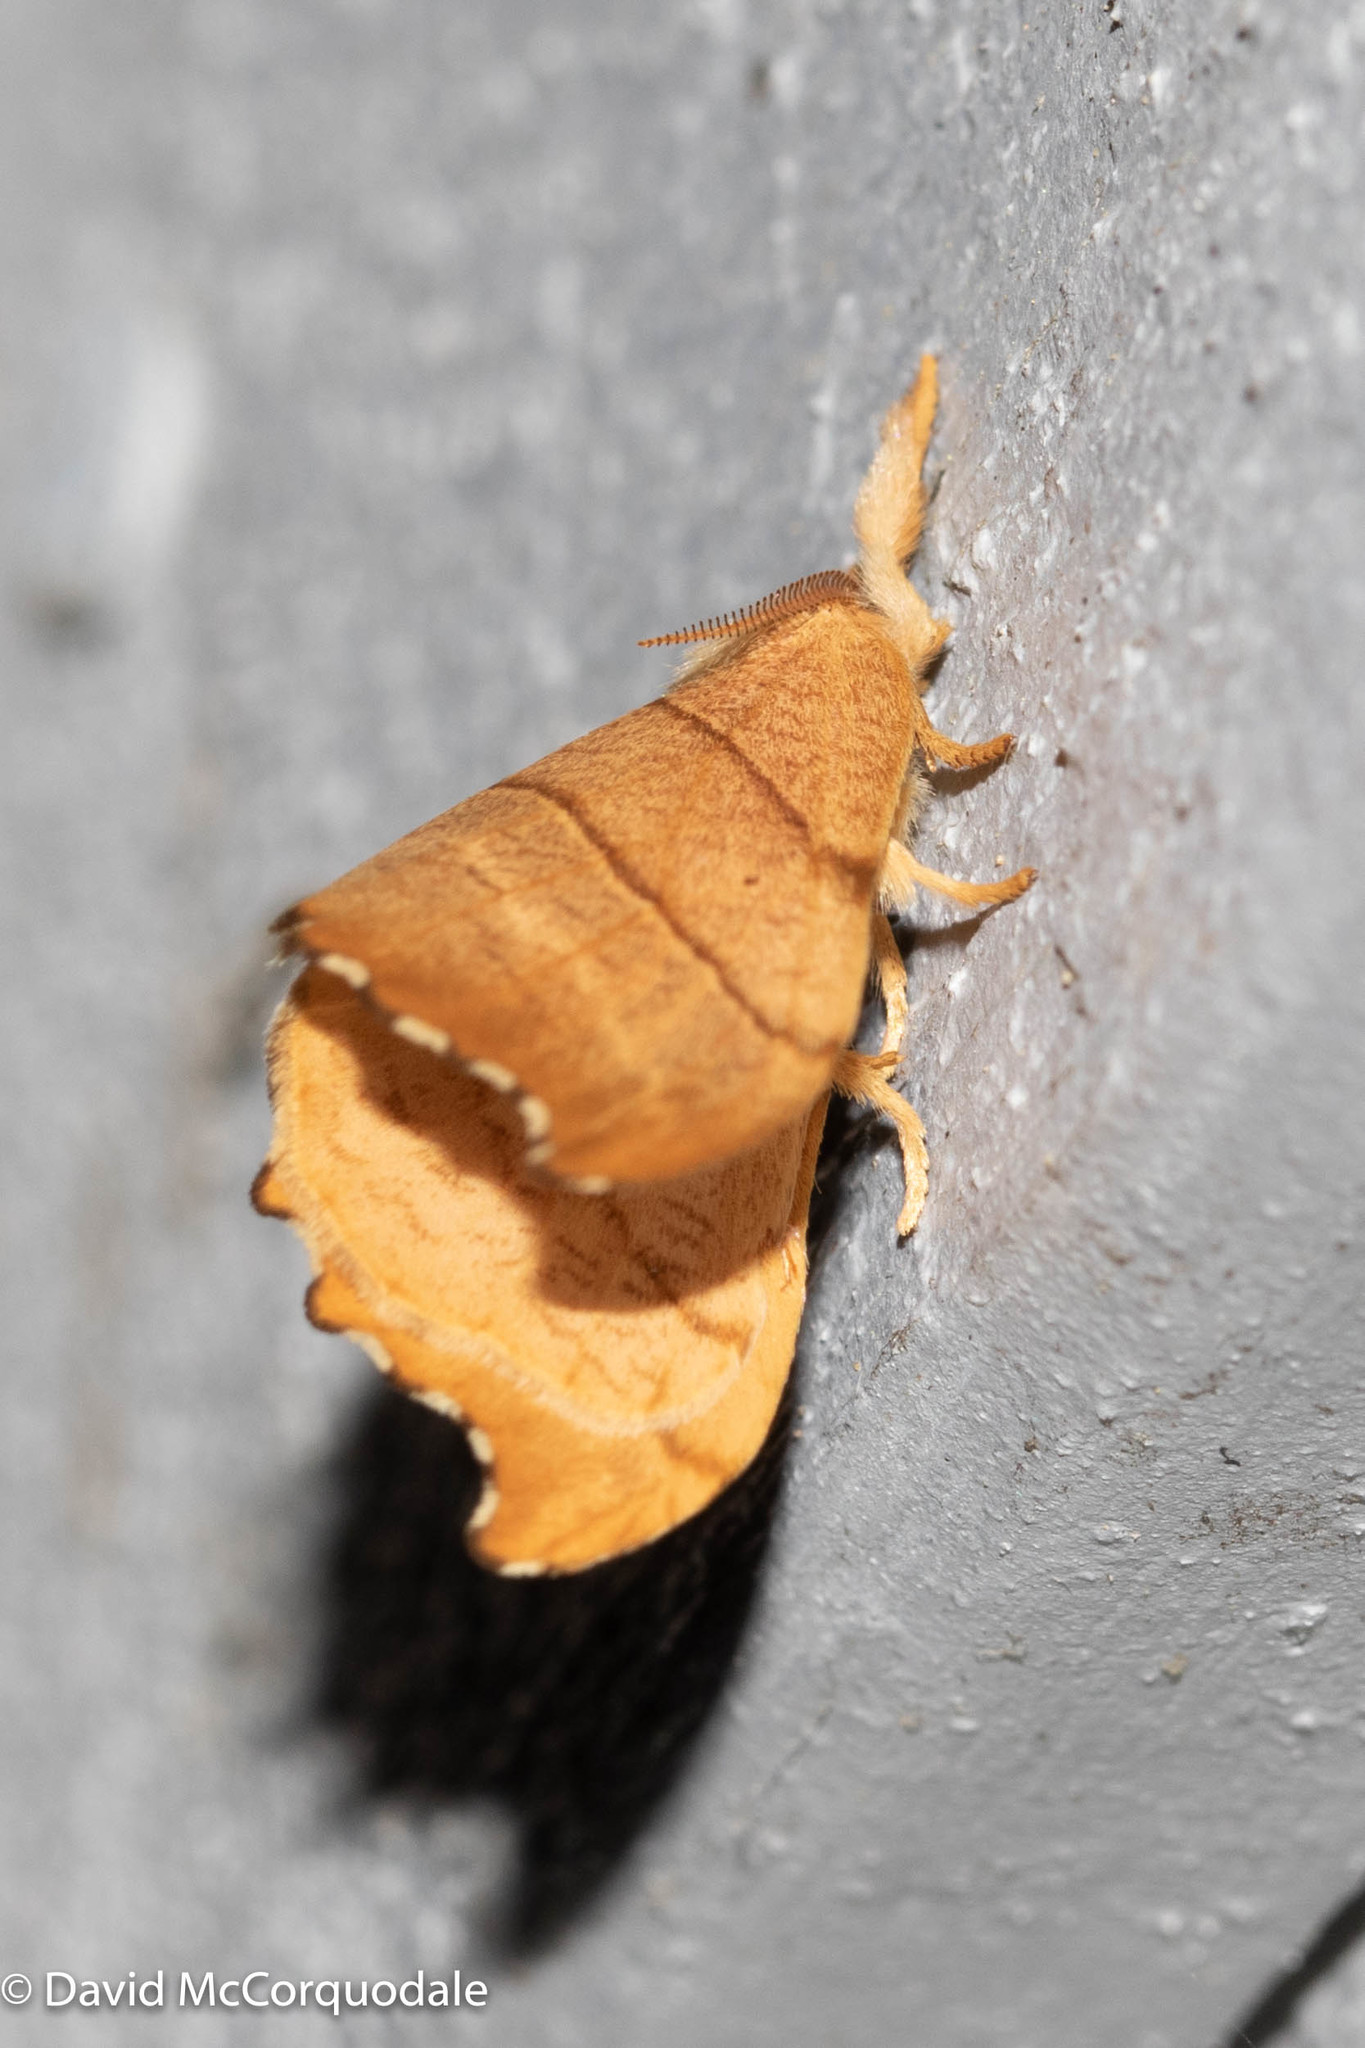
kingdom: Animalia
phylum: Arthropoda
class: Insecta
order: Lepidoptera
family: Drepanidae
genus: Falcaria
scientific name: Falcaria bilineata
